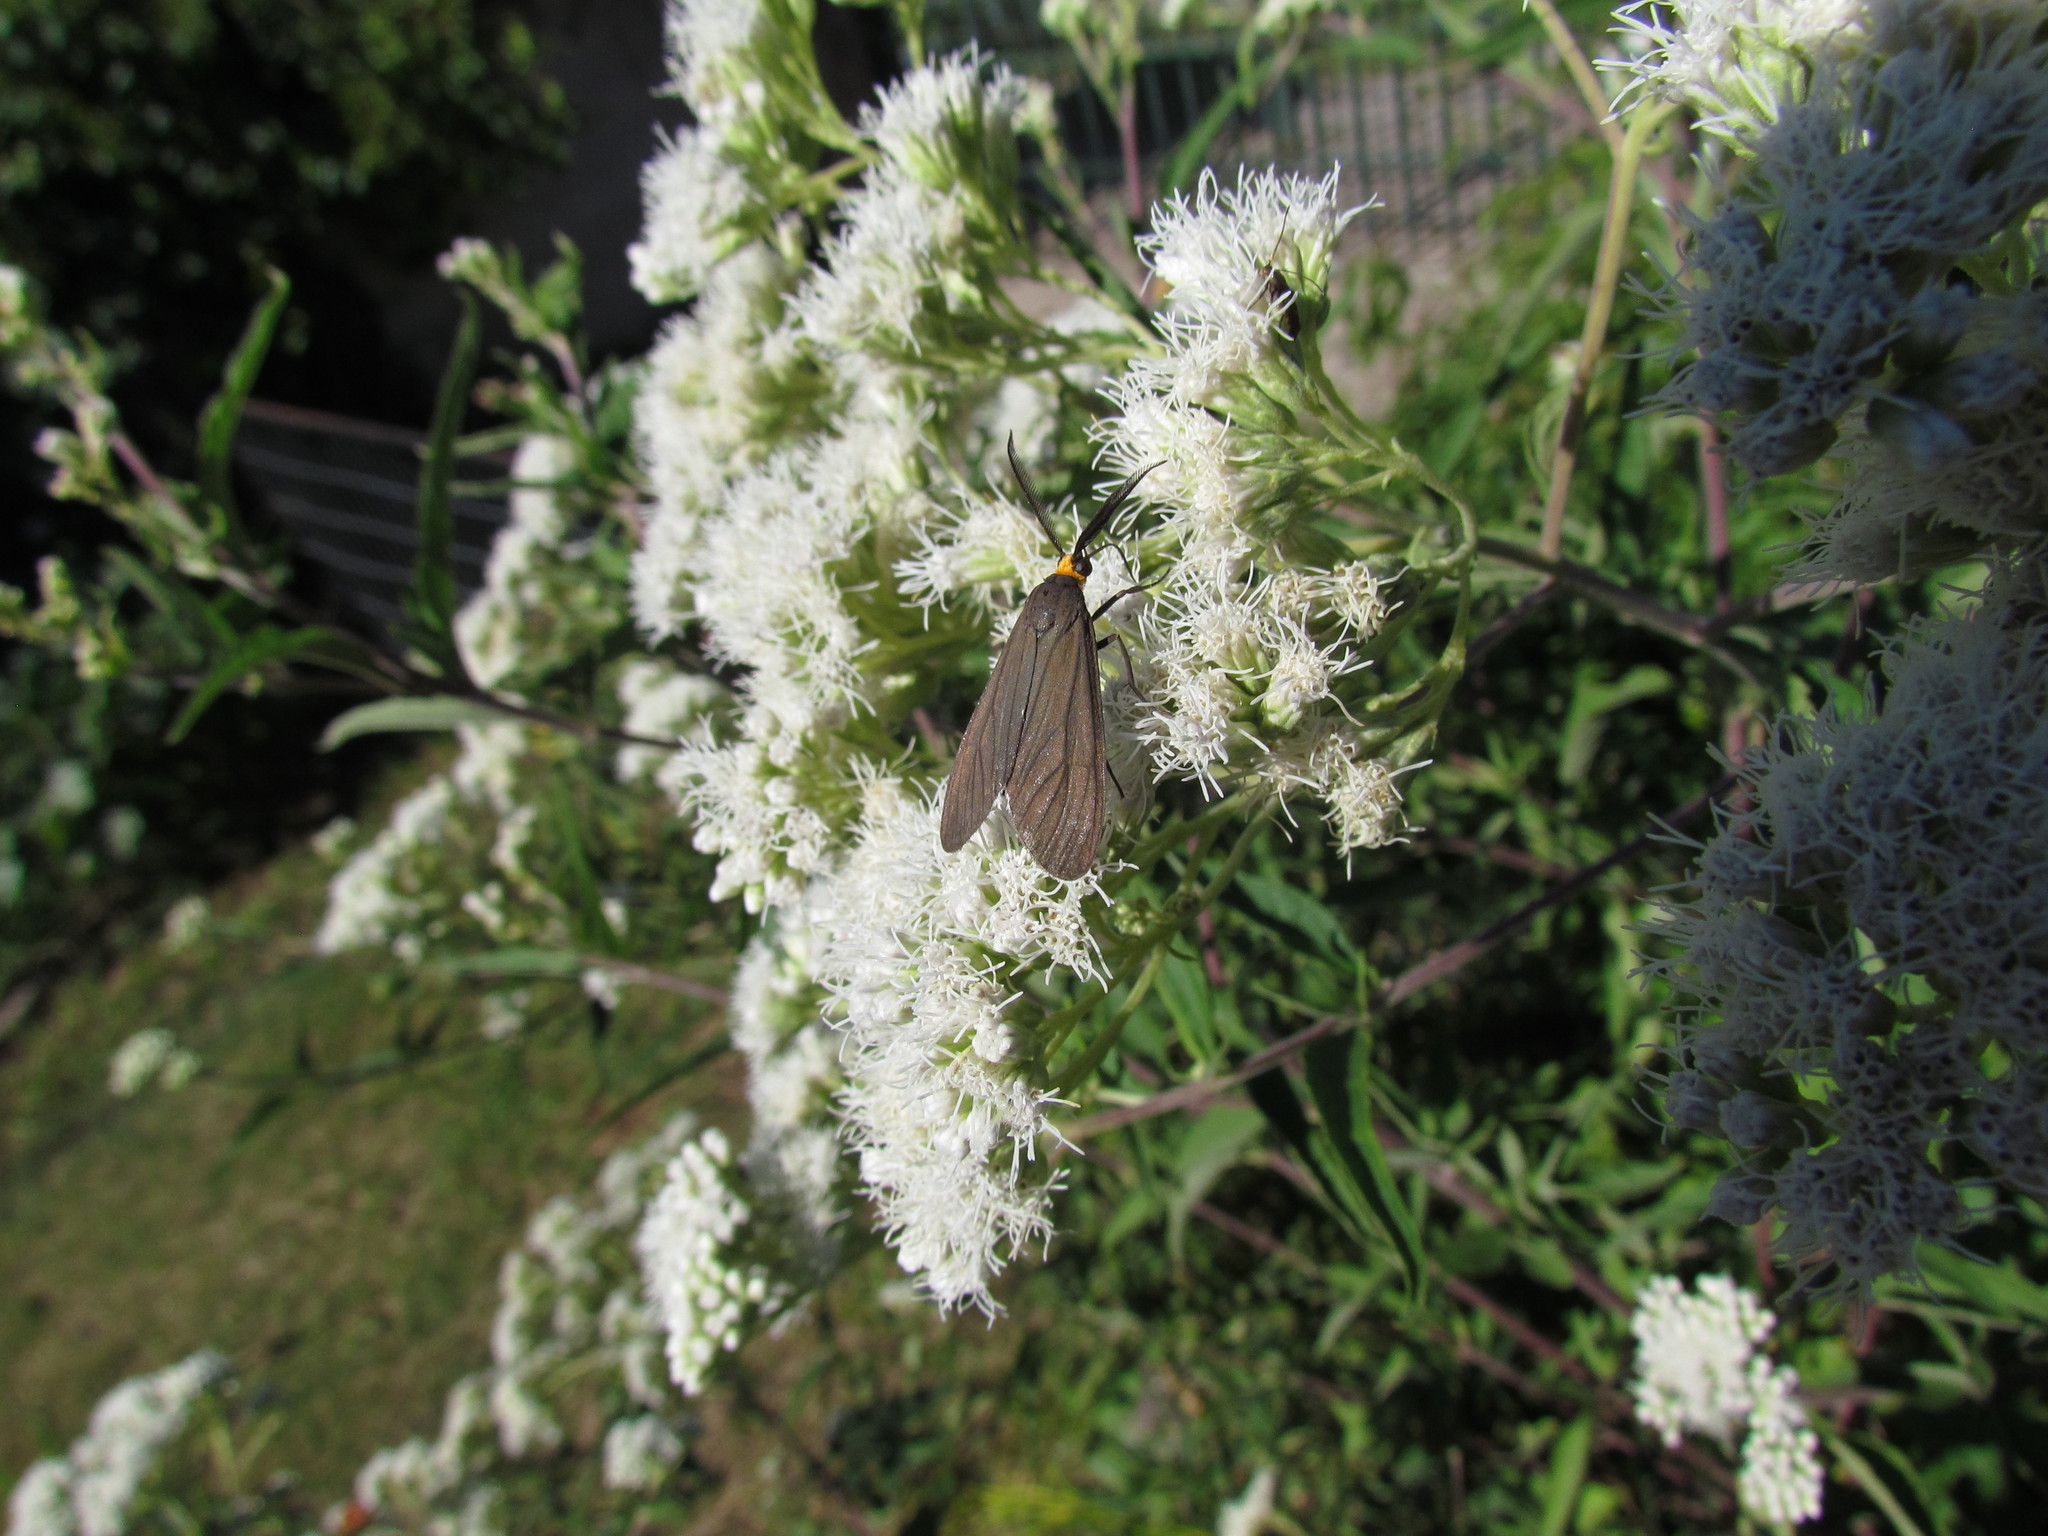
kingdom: Animalia
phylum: Arthropoda
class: Insecta
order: Lepidoptera
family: Erebidae
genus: Ctenucha
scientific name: Ctenucha rubriceps
